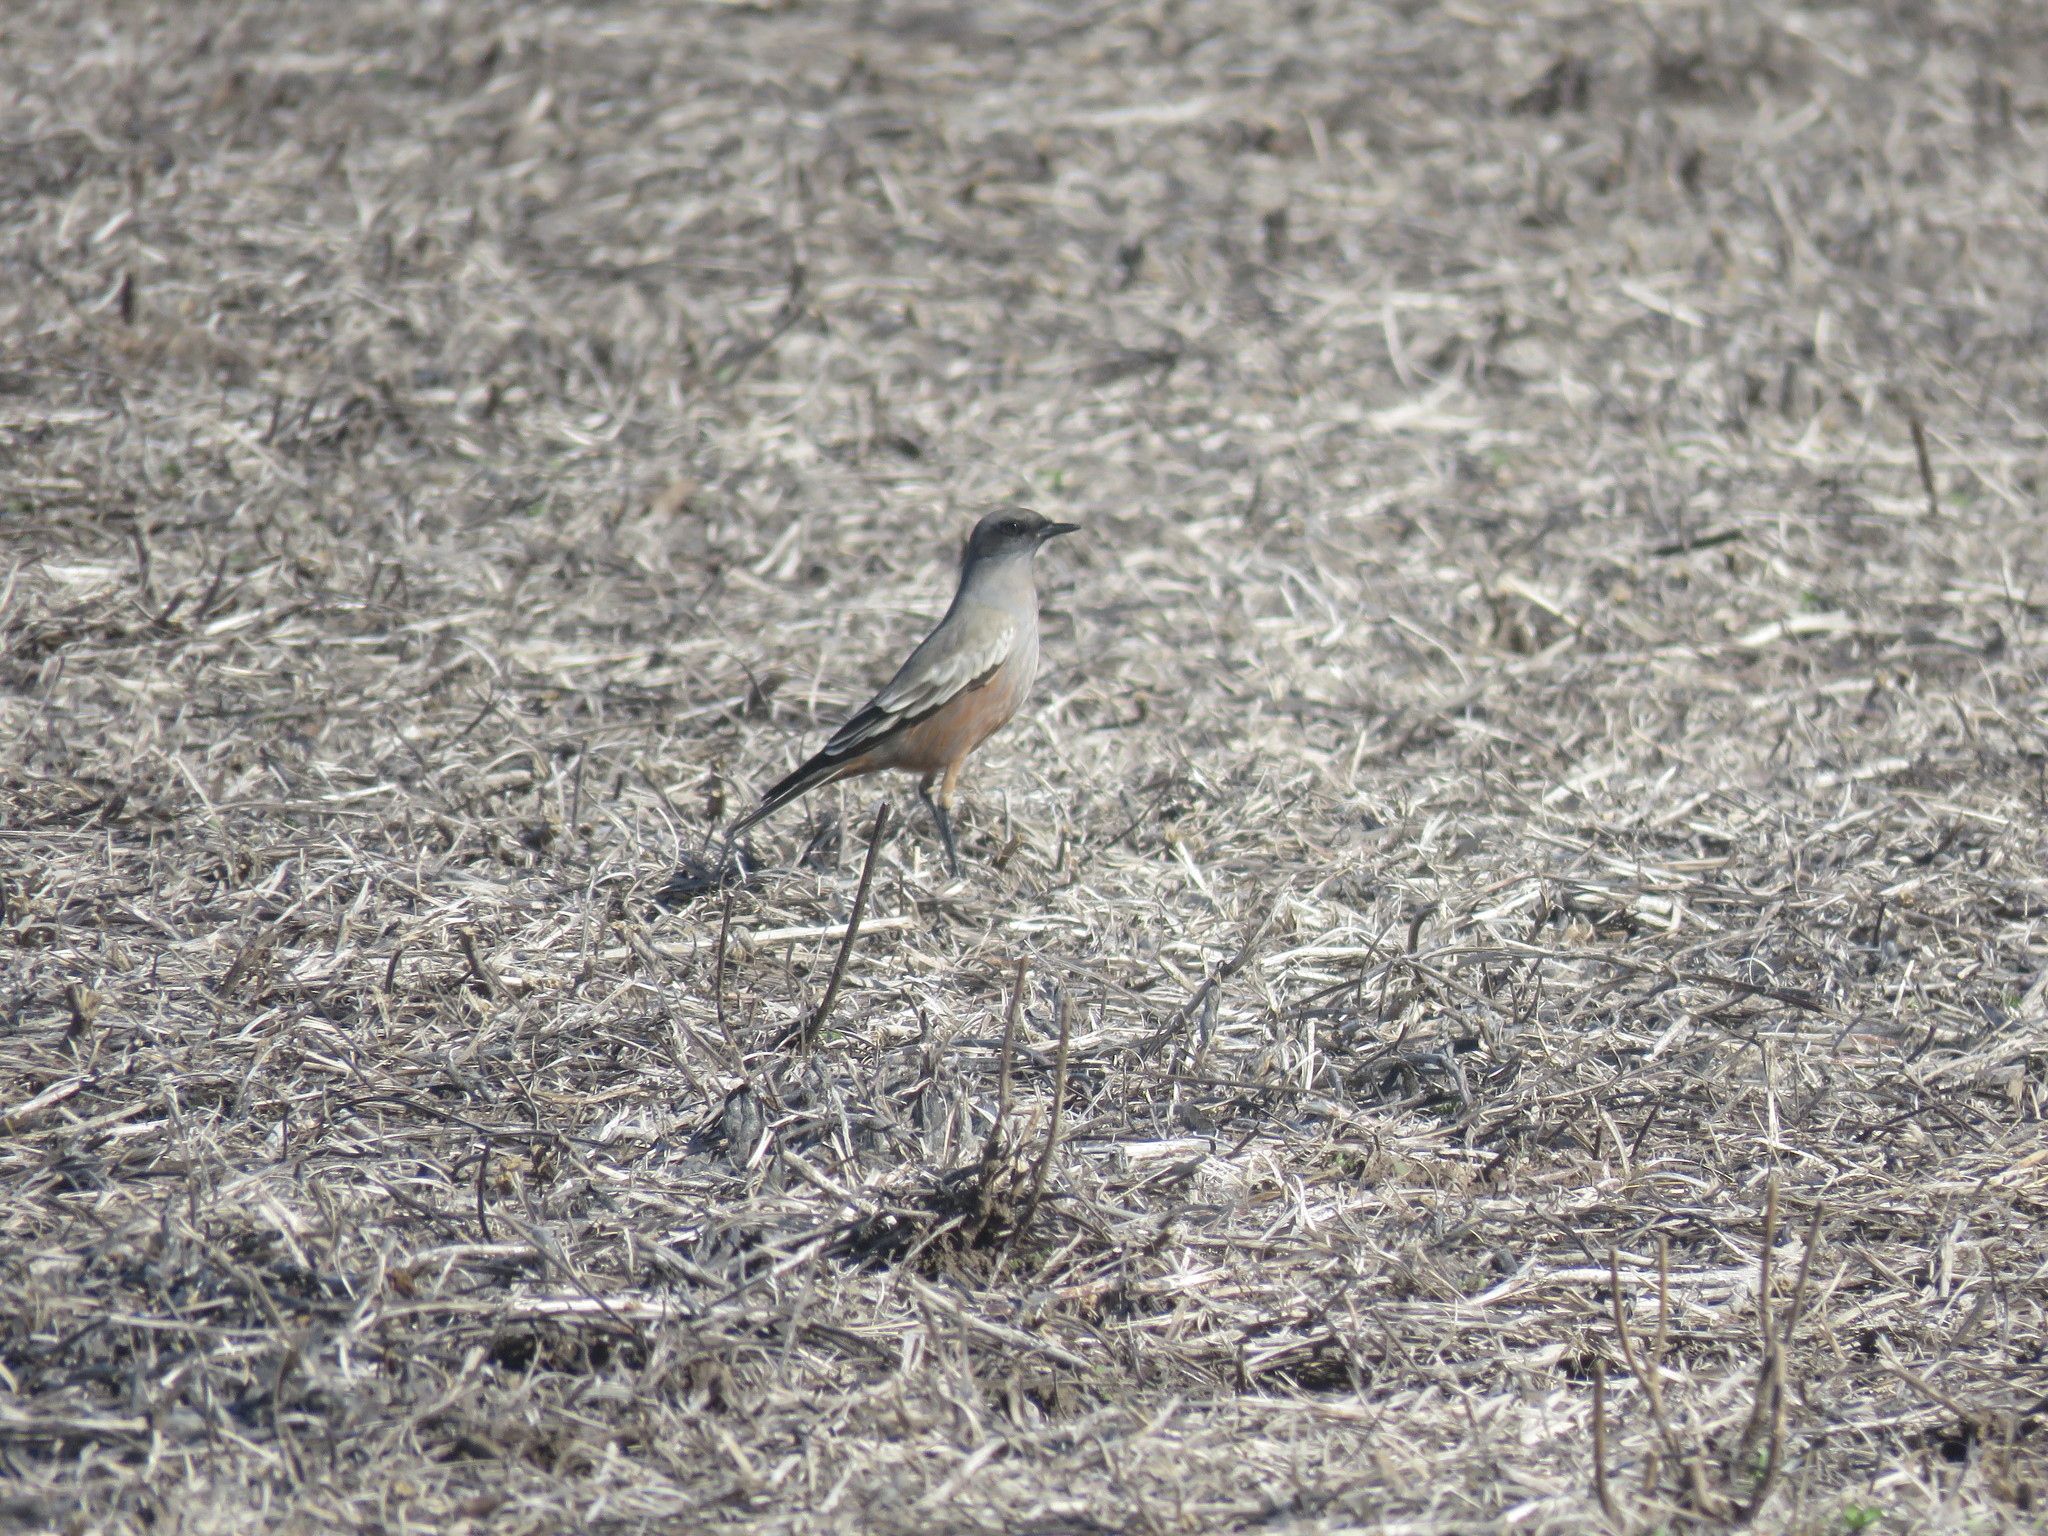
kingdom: Animalia
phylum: Chordata
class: Aves
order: Passeriformes
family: Tyrannidae
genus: Neoxolmis
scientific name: Neoxolmis rufiventris
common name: Chocolate-vented tyrant
